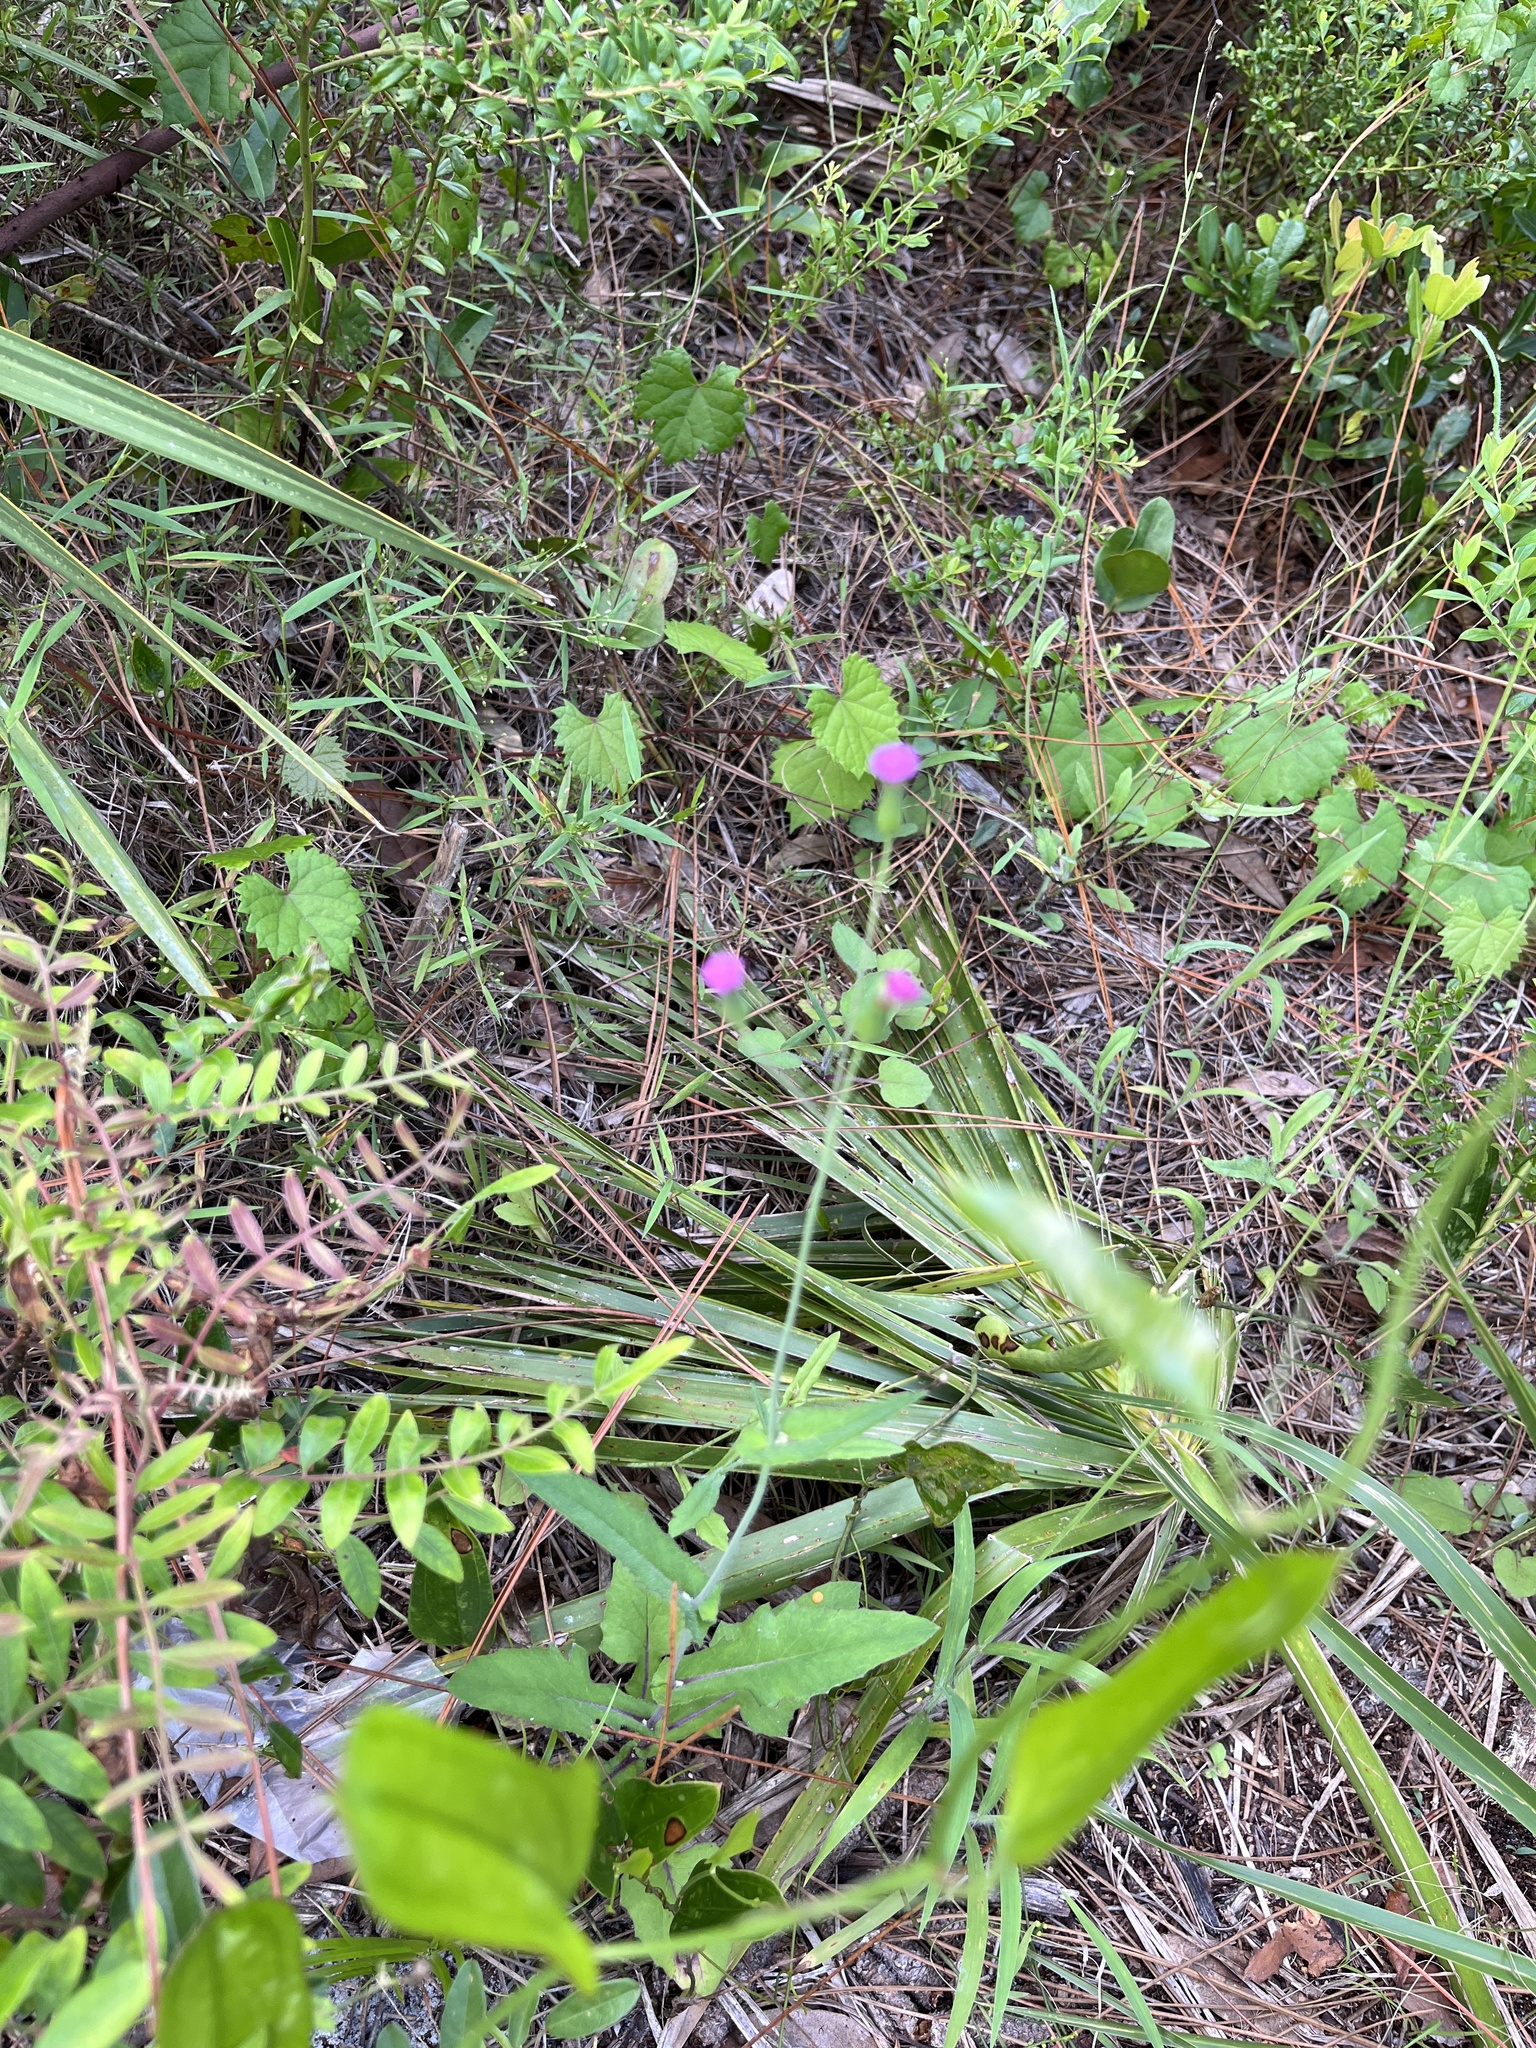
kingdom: Plantae
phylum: Tracheophyta
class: Magnoliopsida
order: Asterales
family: Asteraceae
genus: Emilia
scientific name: Emilia sonchifolia
